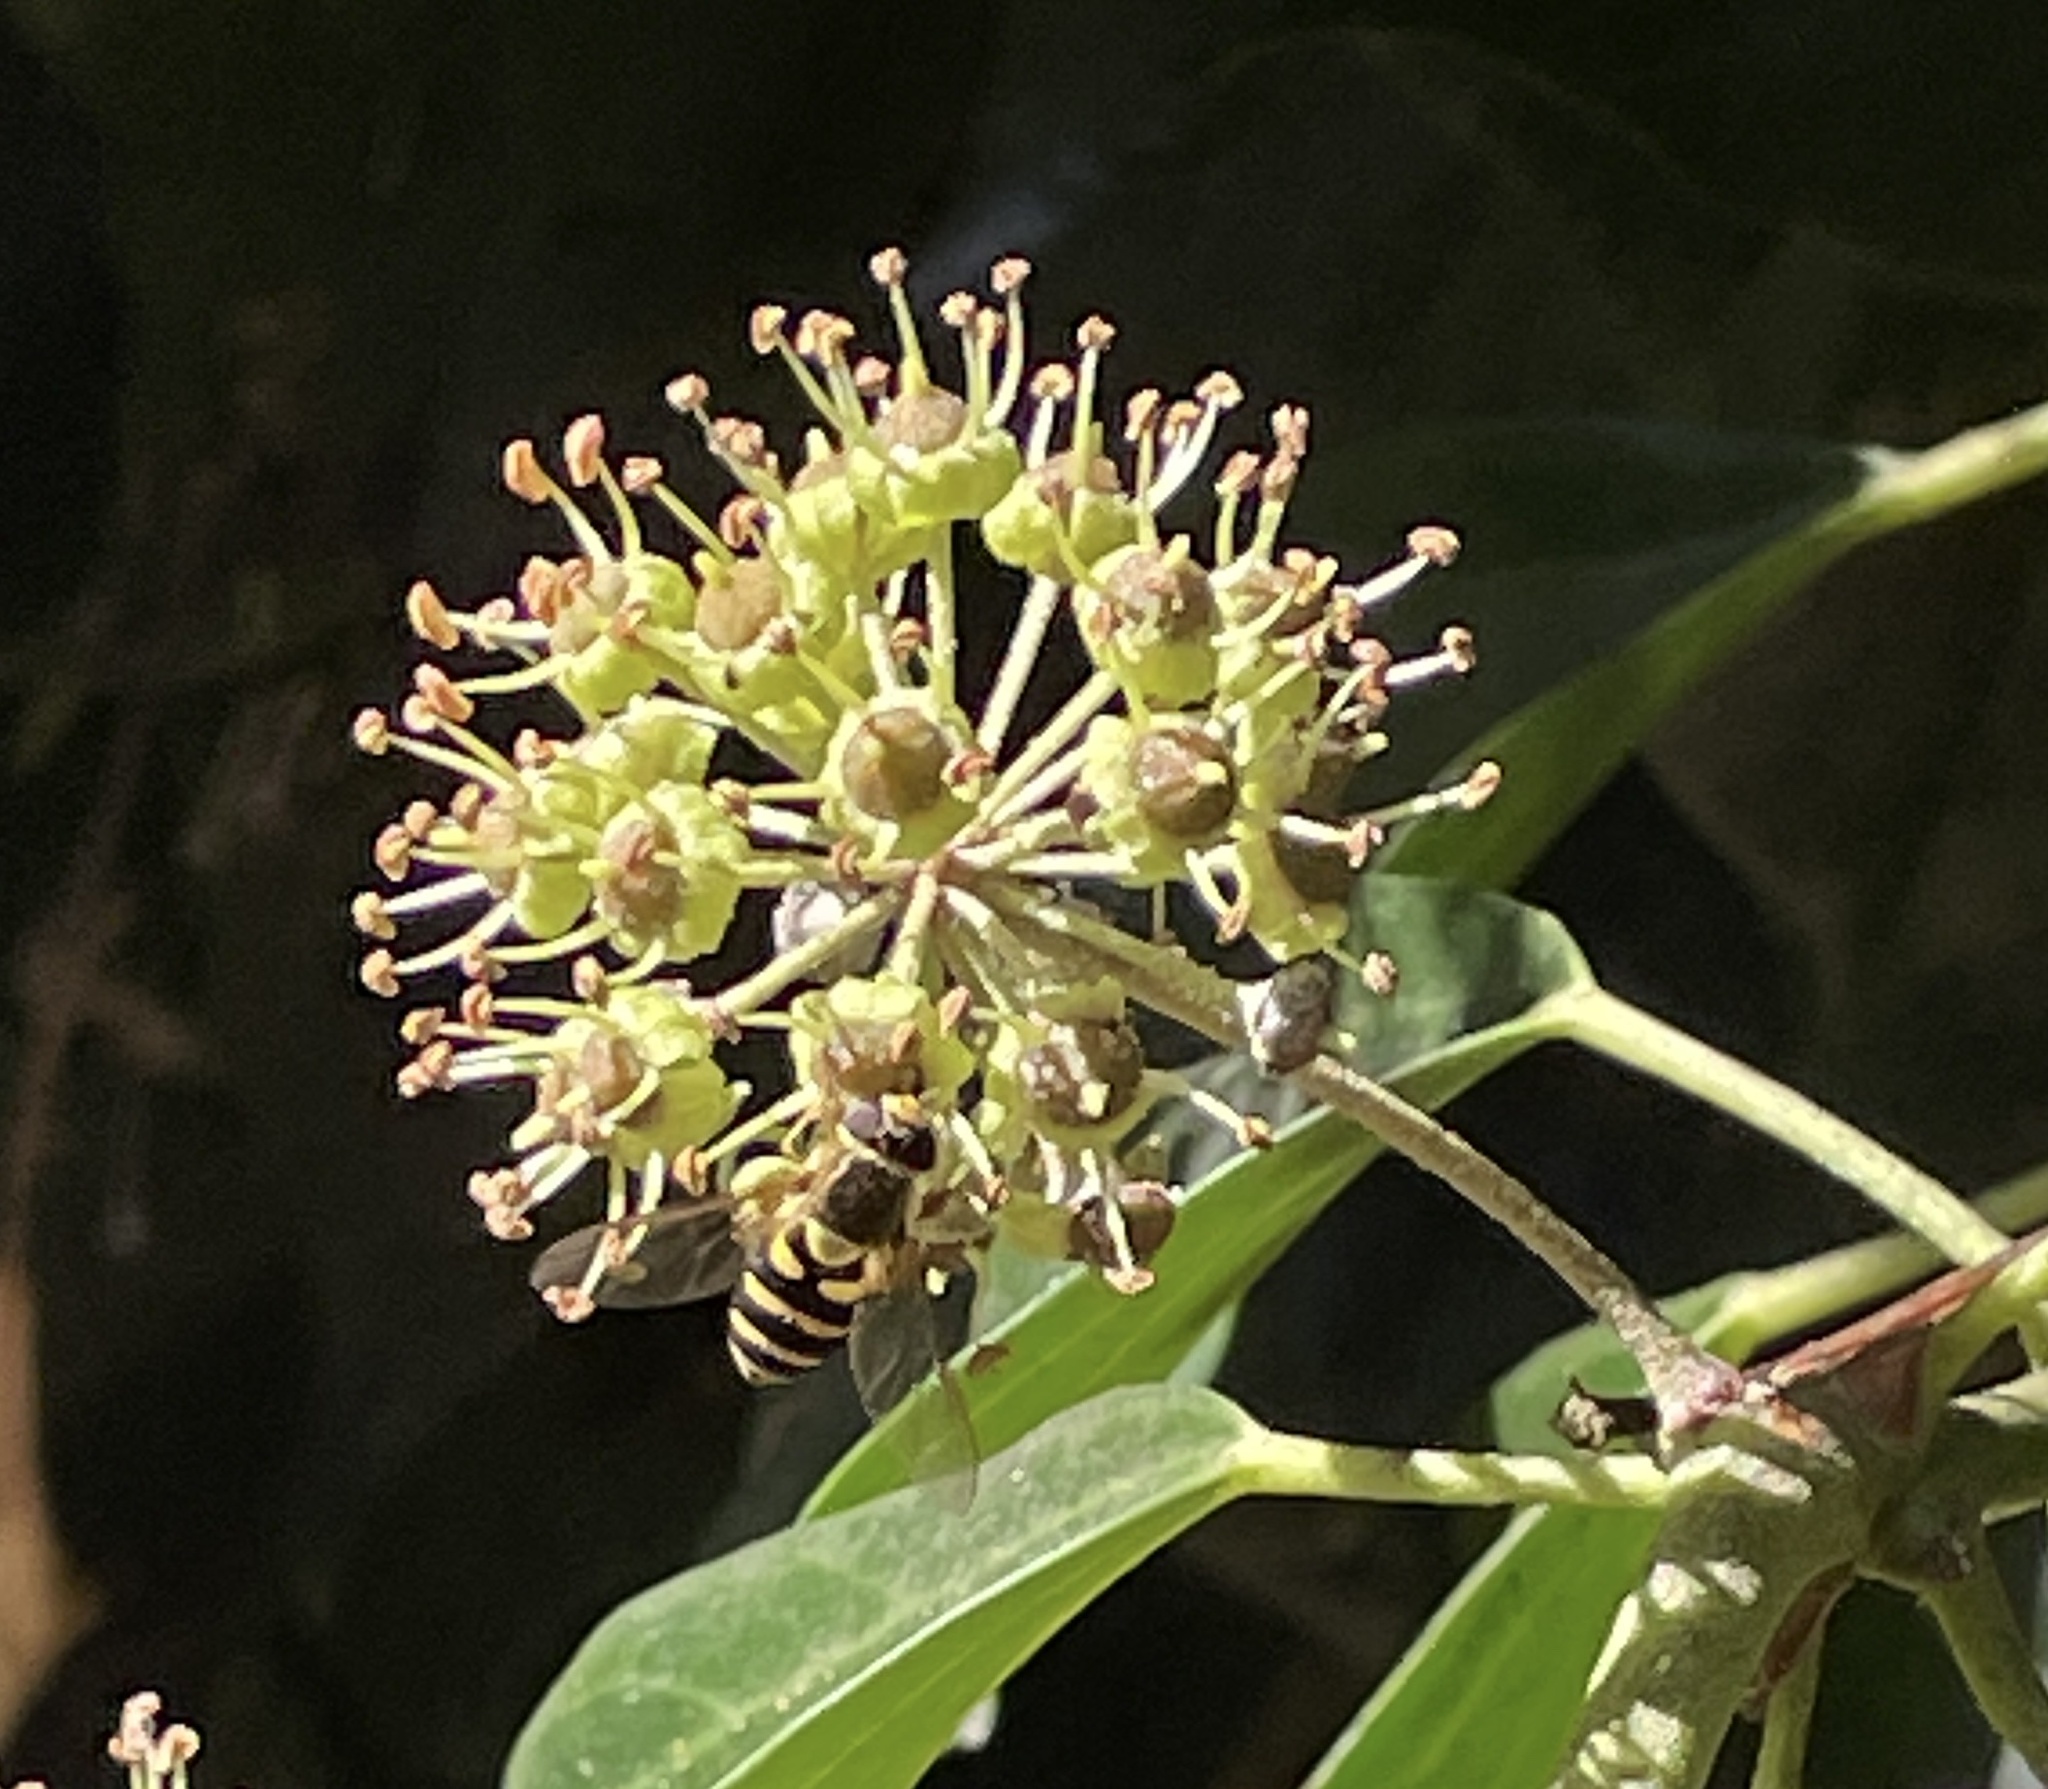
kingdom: Animalia
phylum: Arthropoda
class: Insecta
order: Diptera
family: Syrphidae
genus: Syrphus
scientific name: Syrphus opinator
